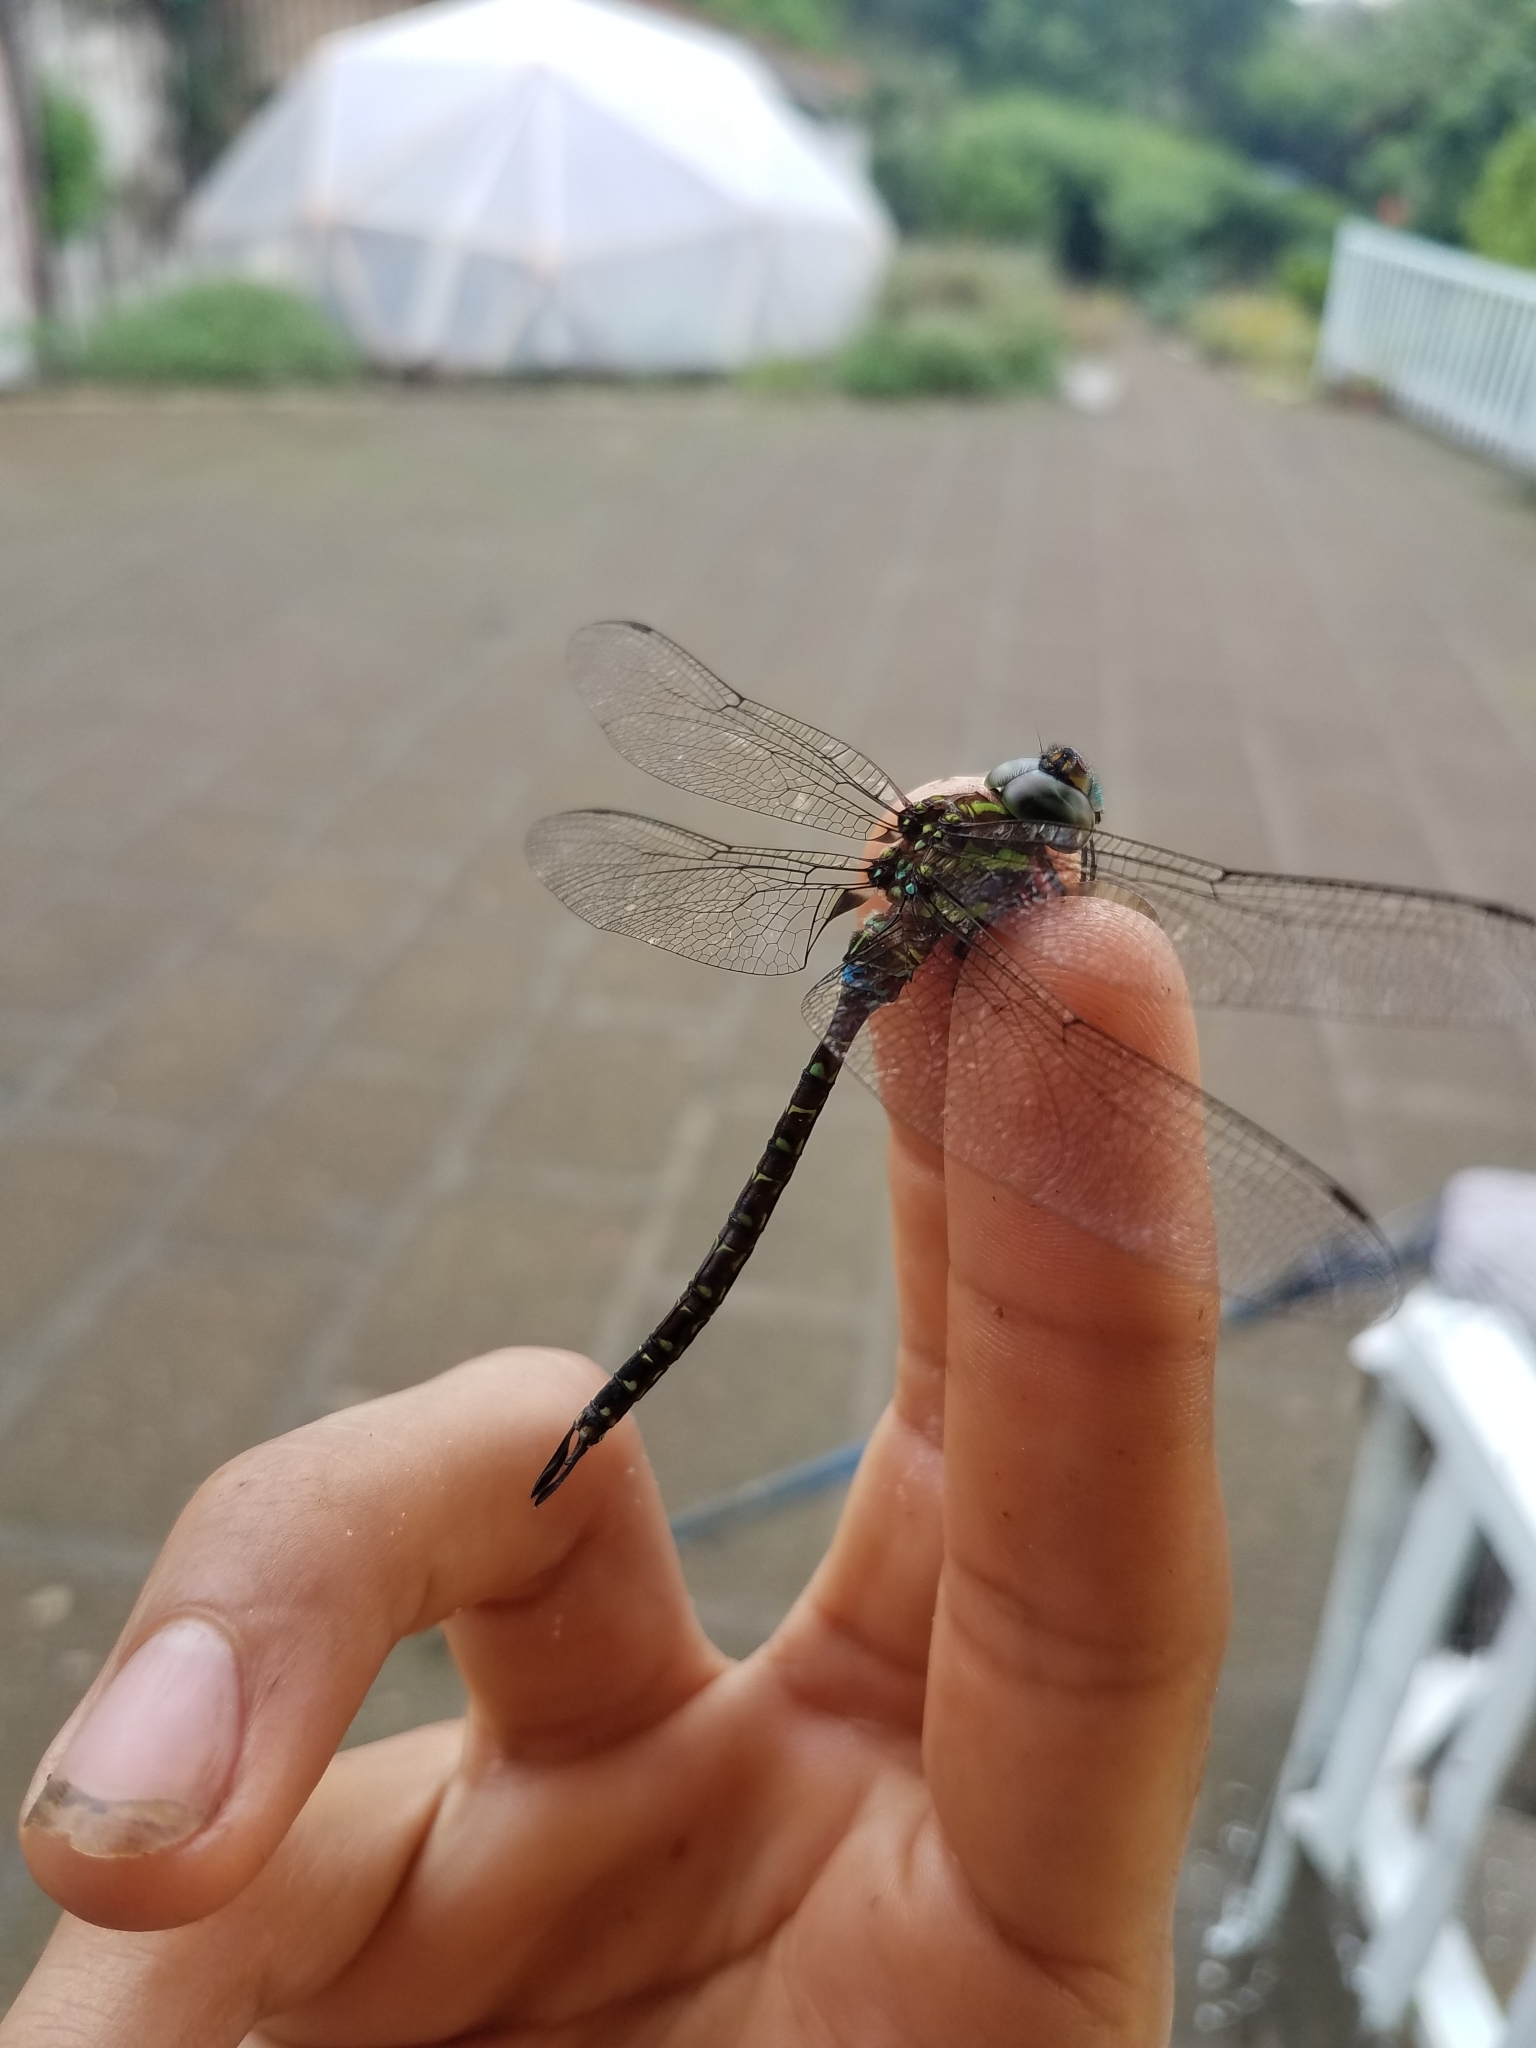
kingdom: Animalia
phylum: Arthropoda
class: Insecta
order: Odonata
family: Aeshnidae
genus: Rhionaeschna
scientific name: Rhionaeschna psilus
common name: Turquoise-tipped darner
